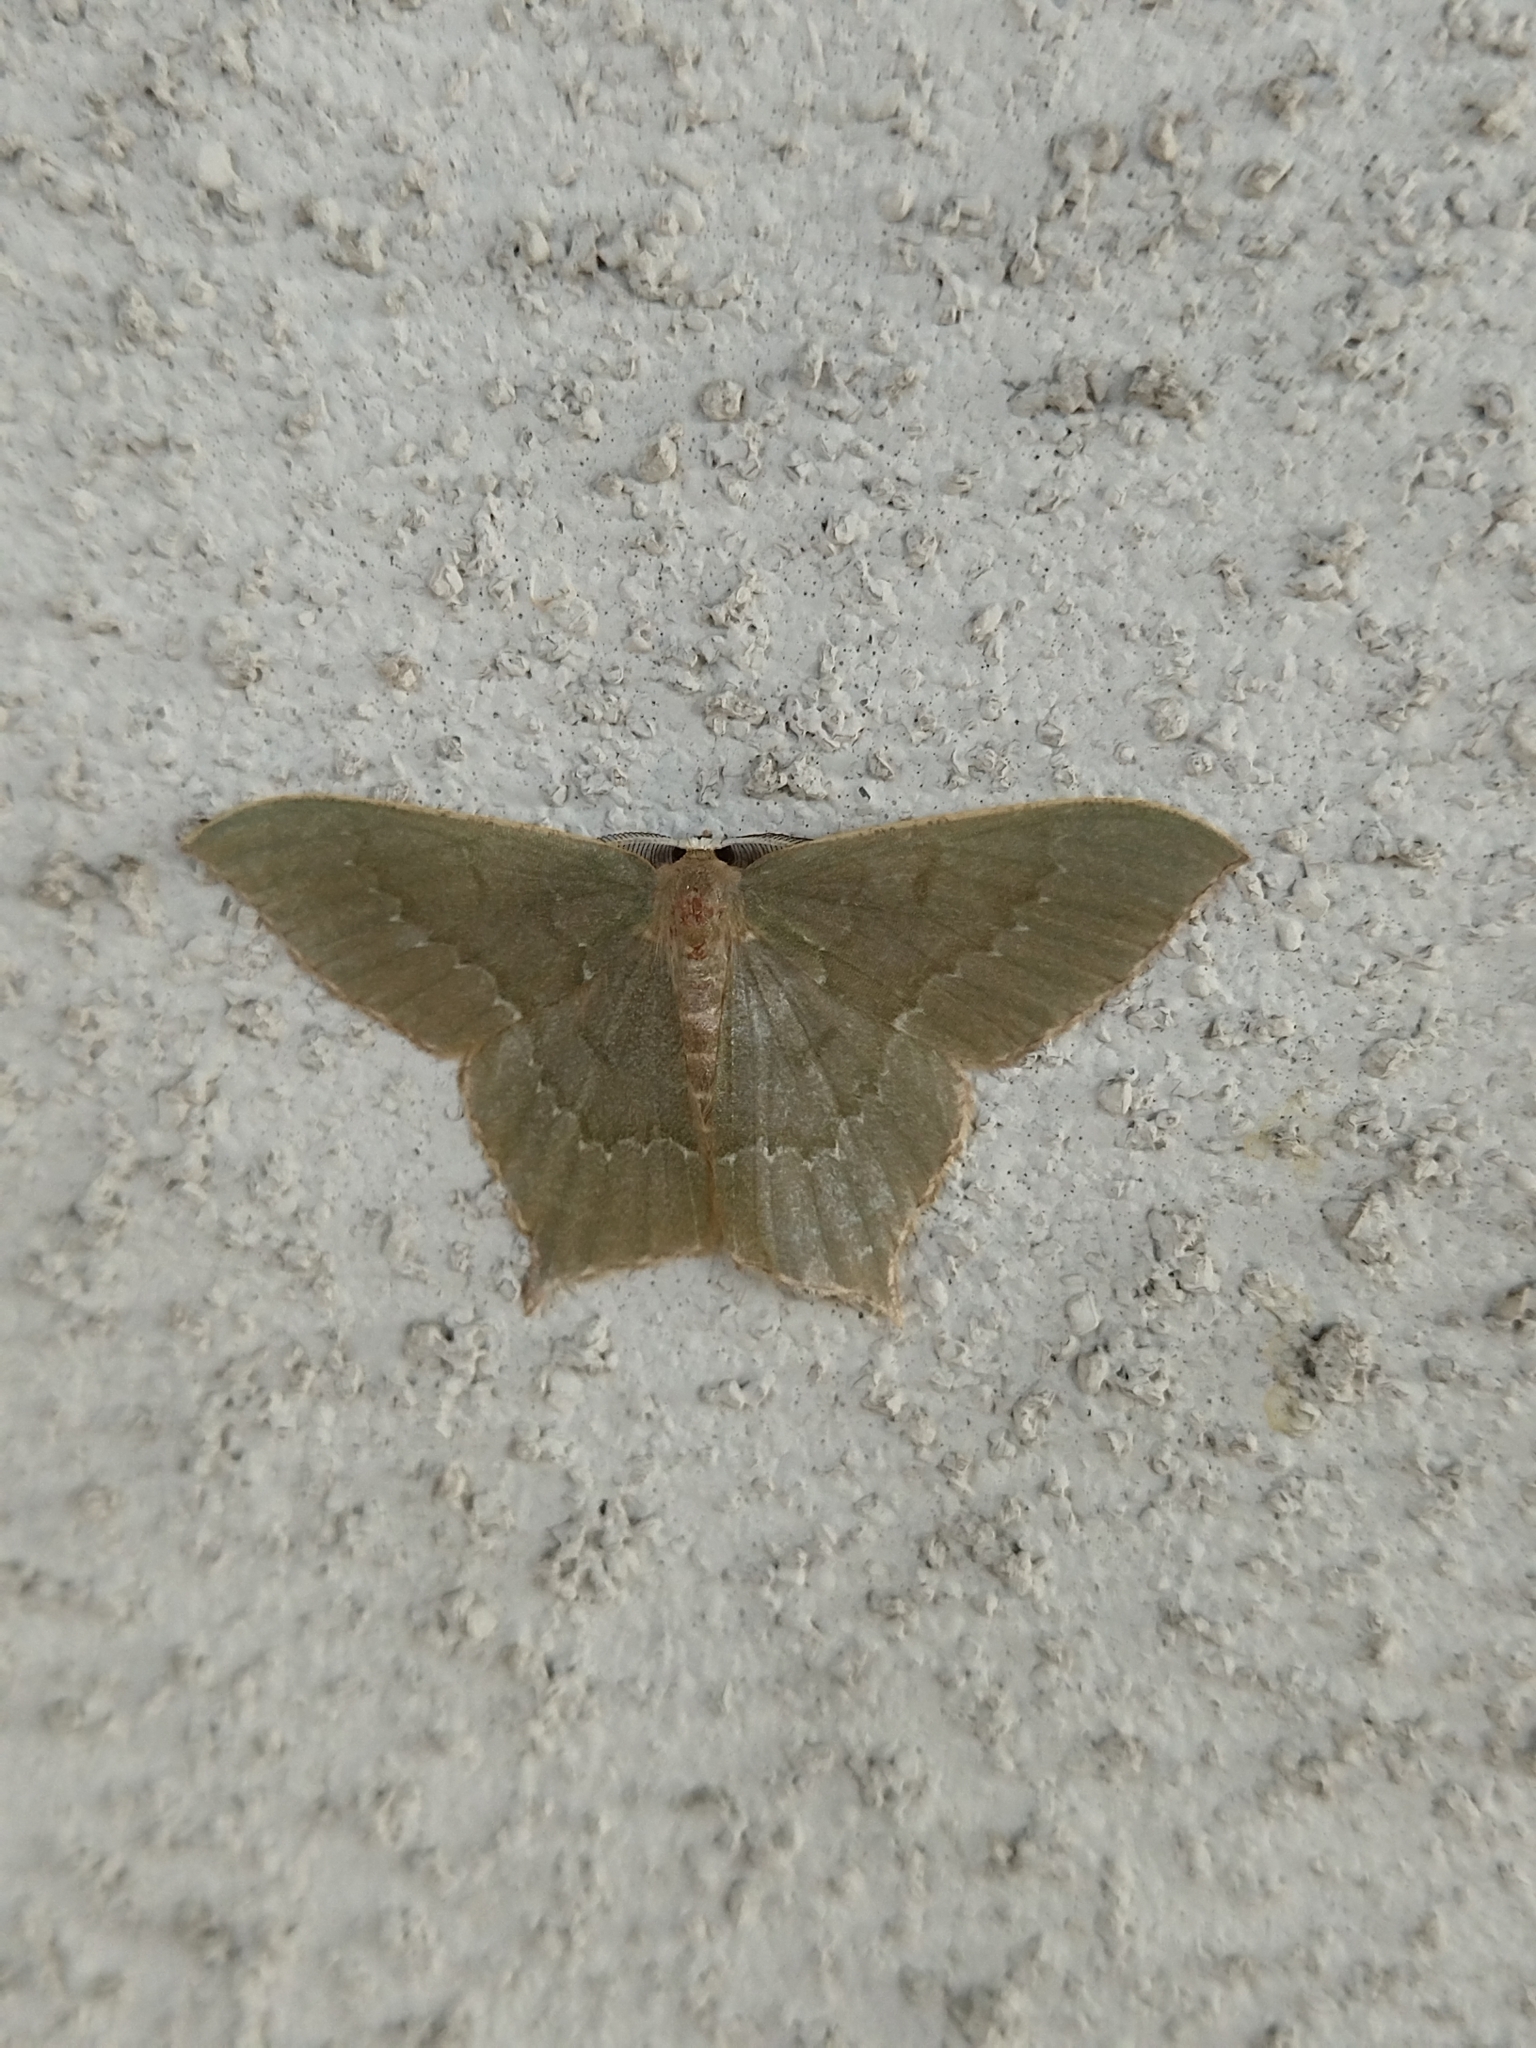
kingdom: Animalia
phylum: Arthropoda
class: Insecta
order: Lepidoptera
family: Geometridae
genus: Maxates
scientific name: Maxates protrusa
